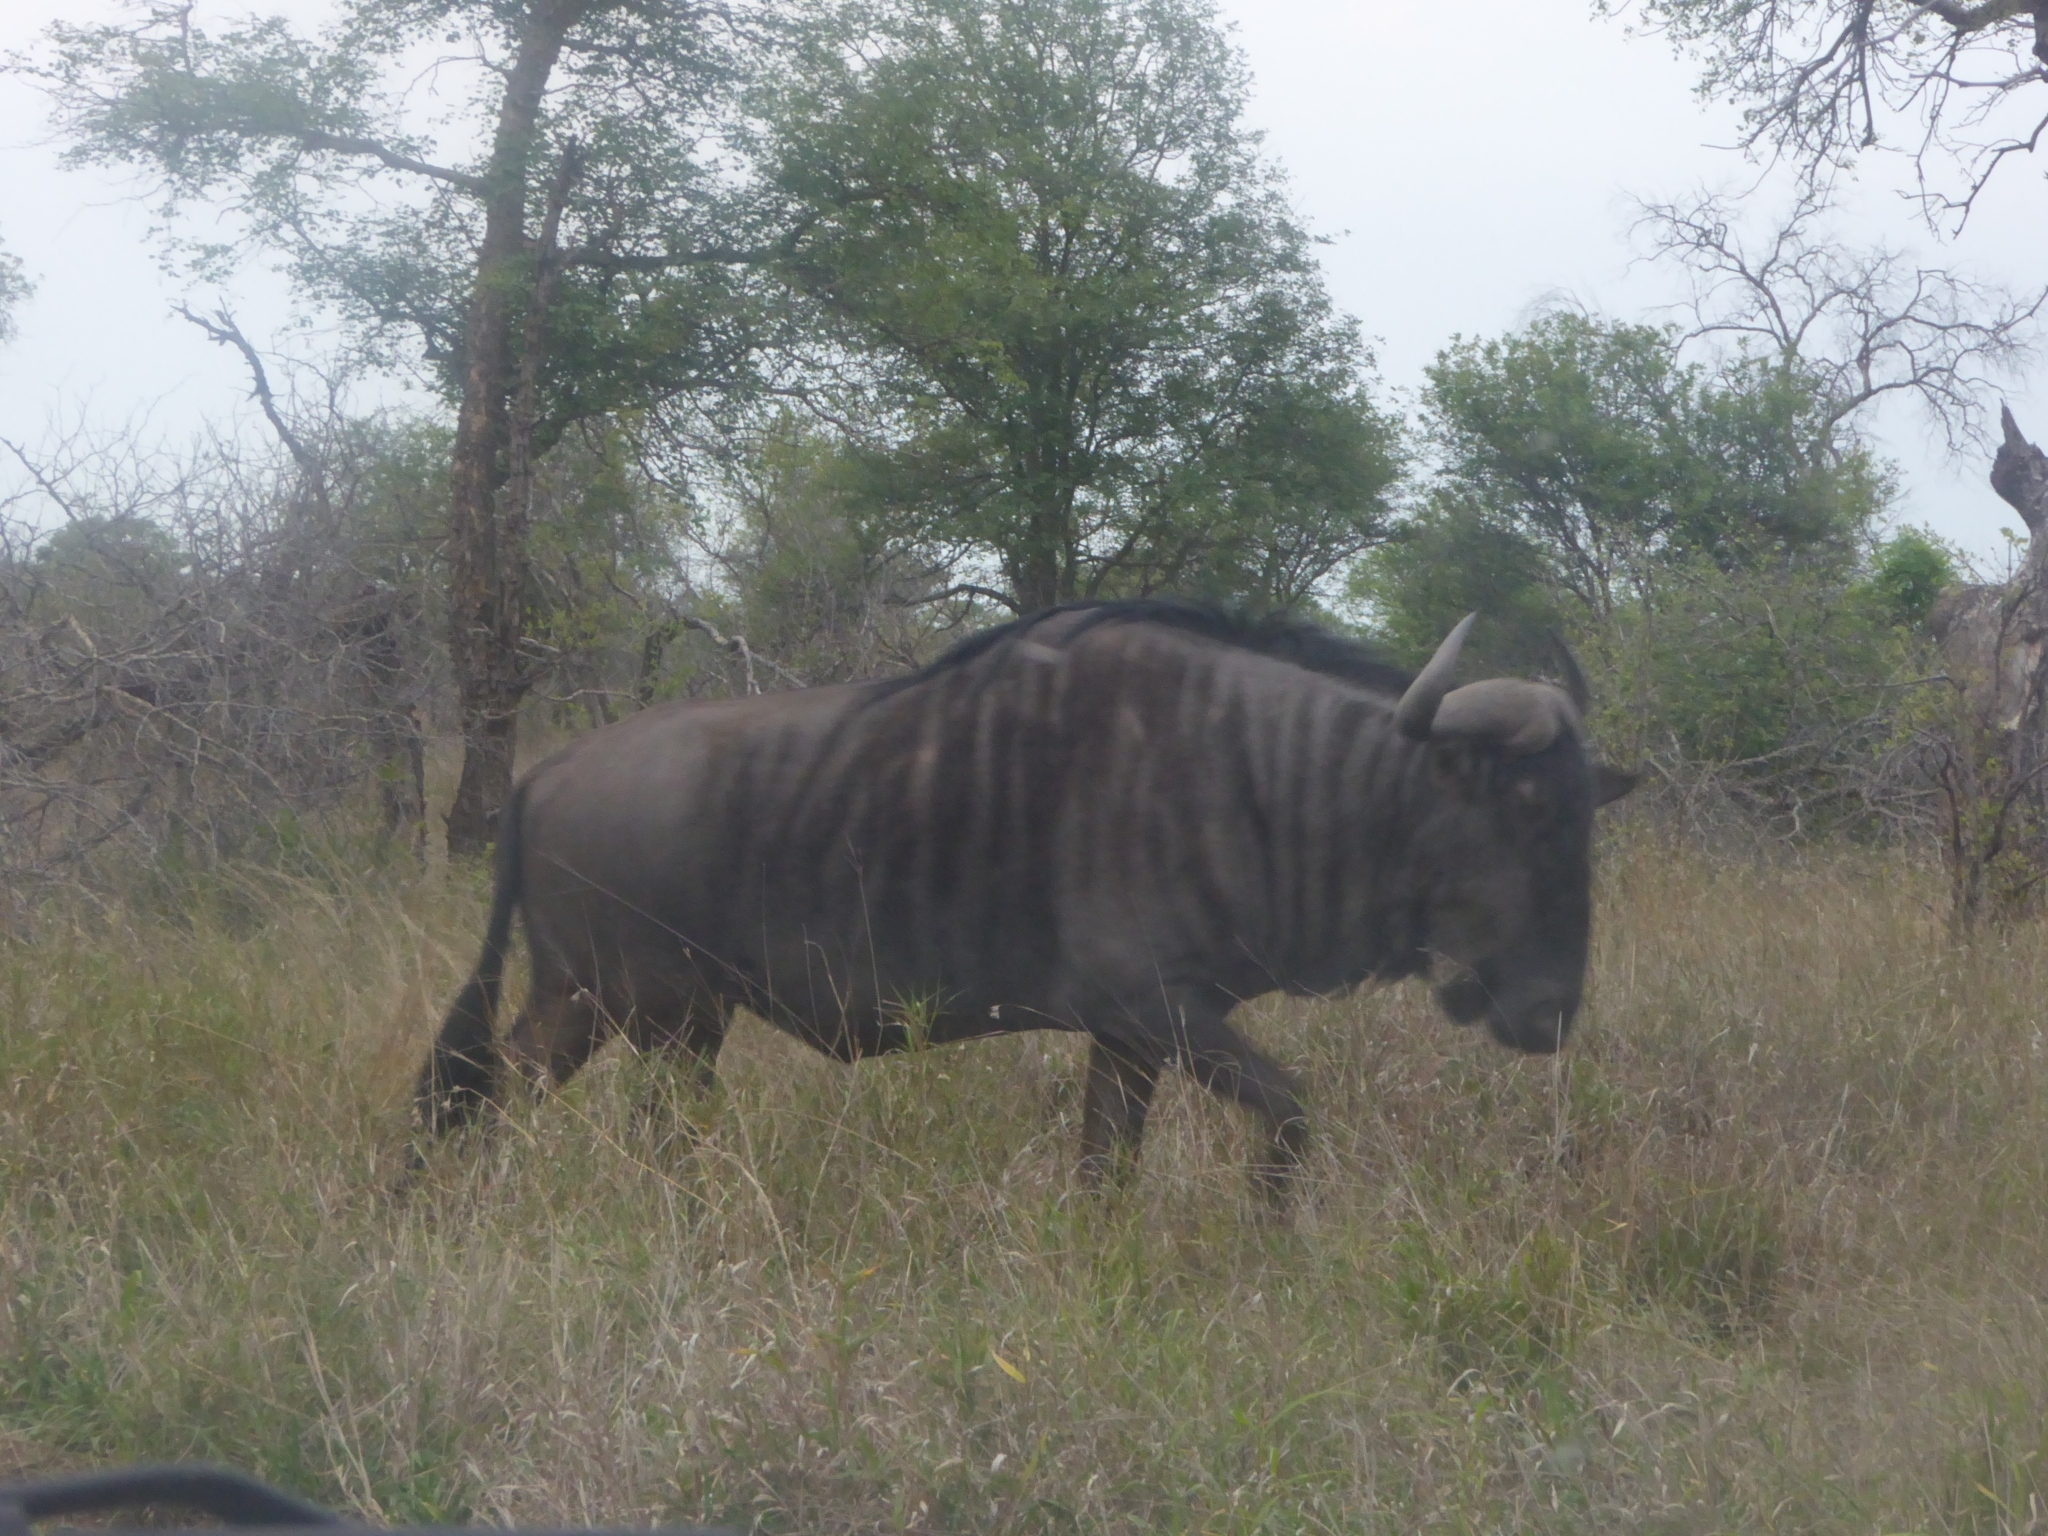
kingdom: Animalia
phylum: Chordata
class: Mammalia
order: Artiodactyla
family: Bovidae
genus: Connochaetes
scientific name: Connochaetes taurinus
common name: Blue wildebeest
